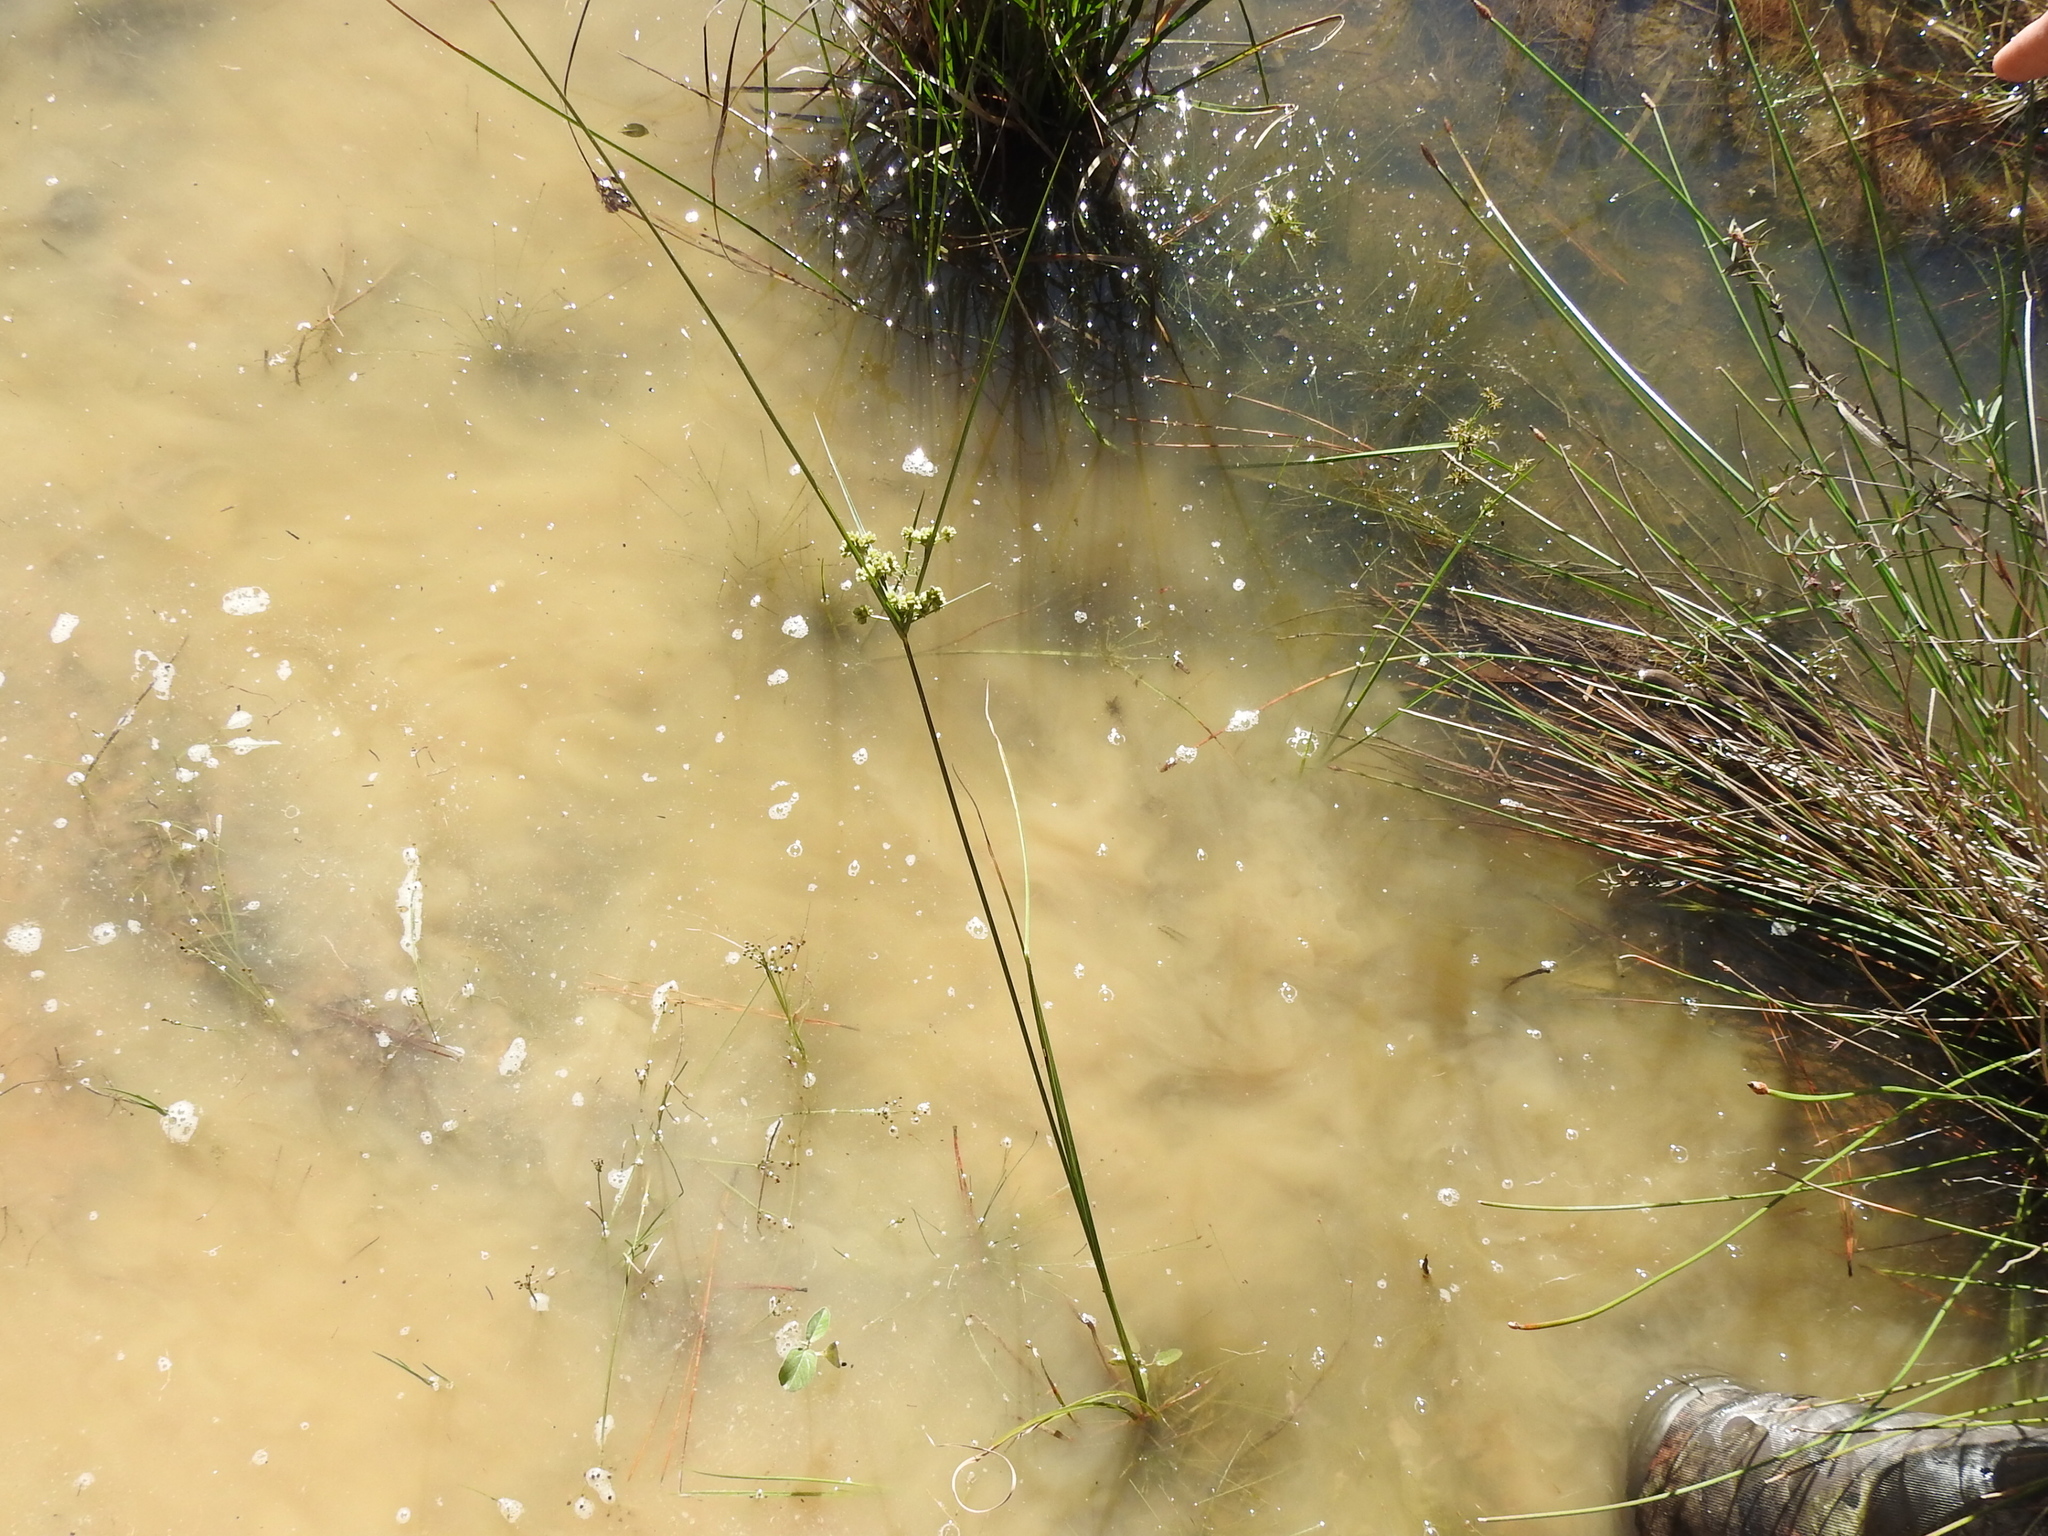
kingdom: Plantae
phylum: Tracheophyta
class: Liliopsida
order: Poales
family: Cyperaceae
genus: Cyperus
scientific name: Cyperus pseudovegetus
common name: Marsh flat sedge
